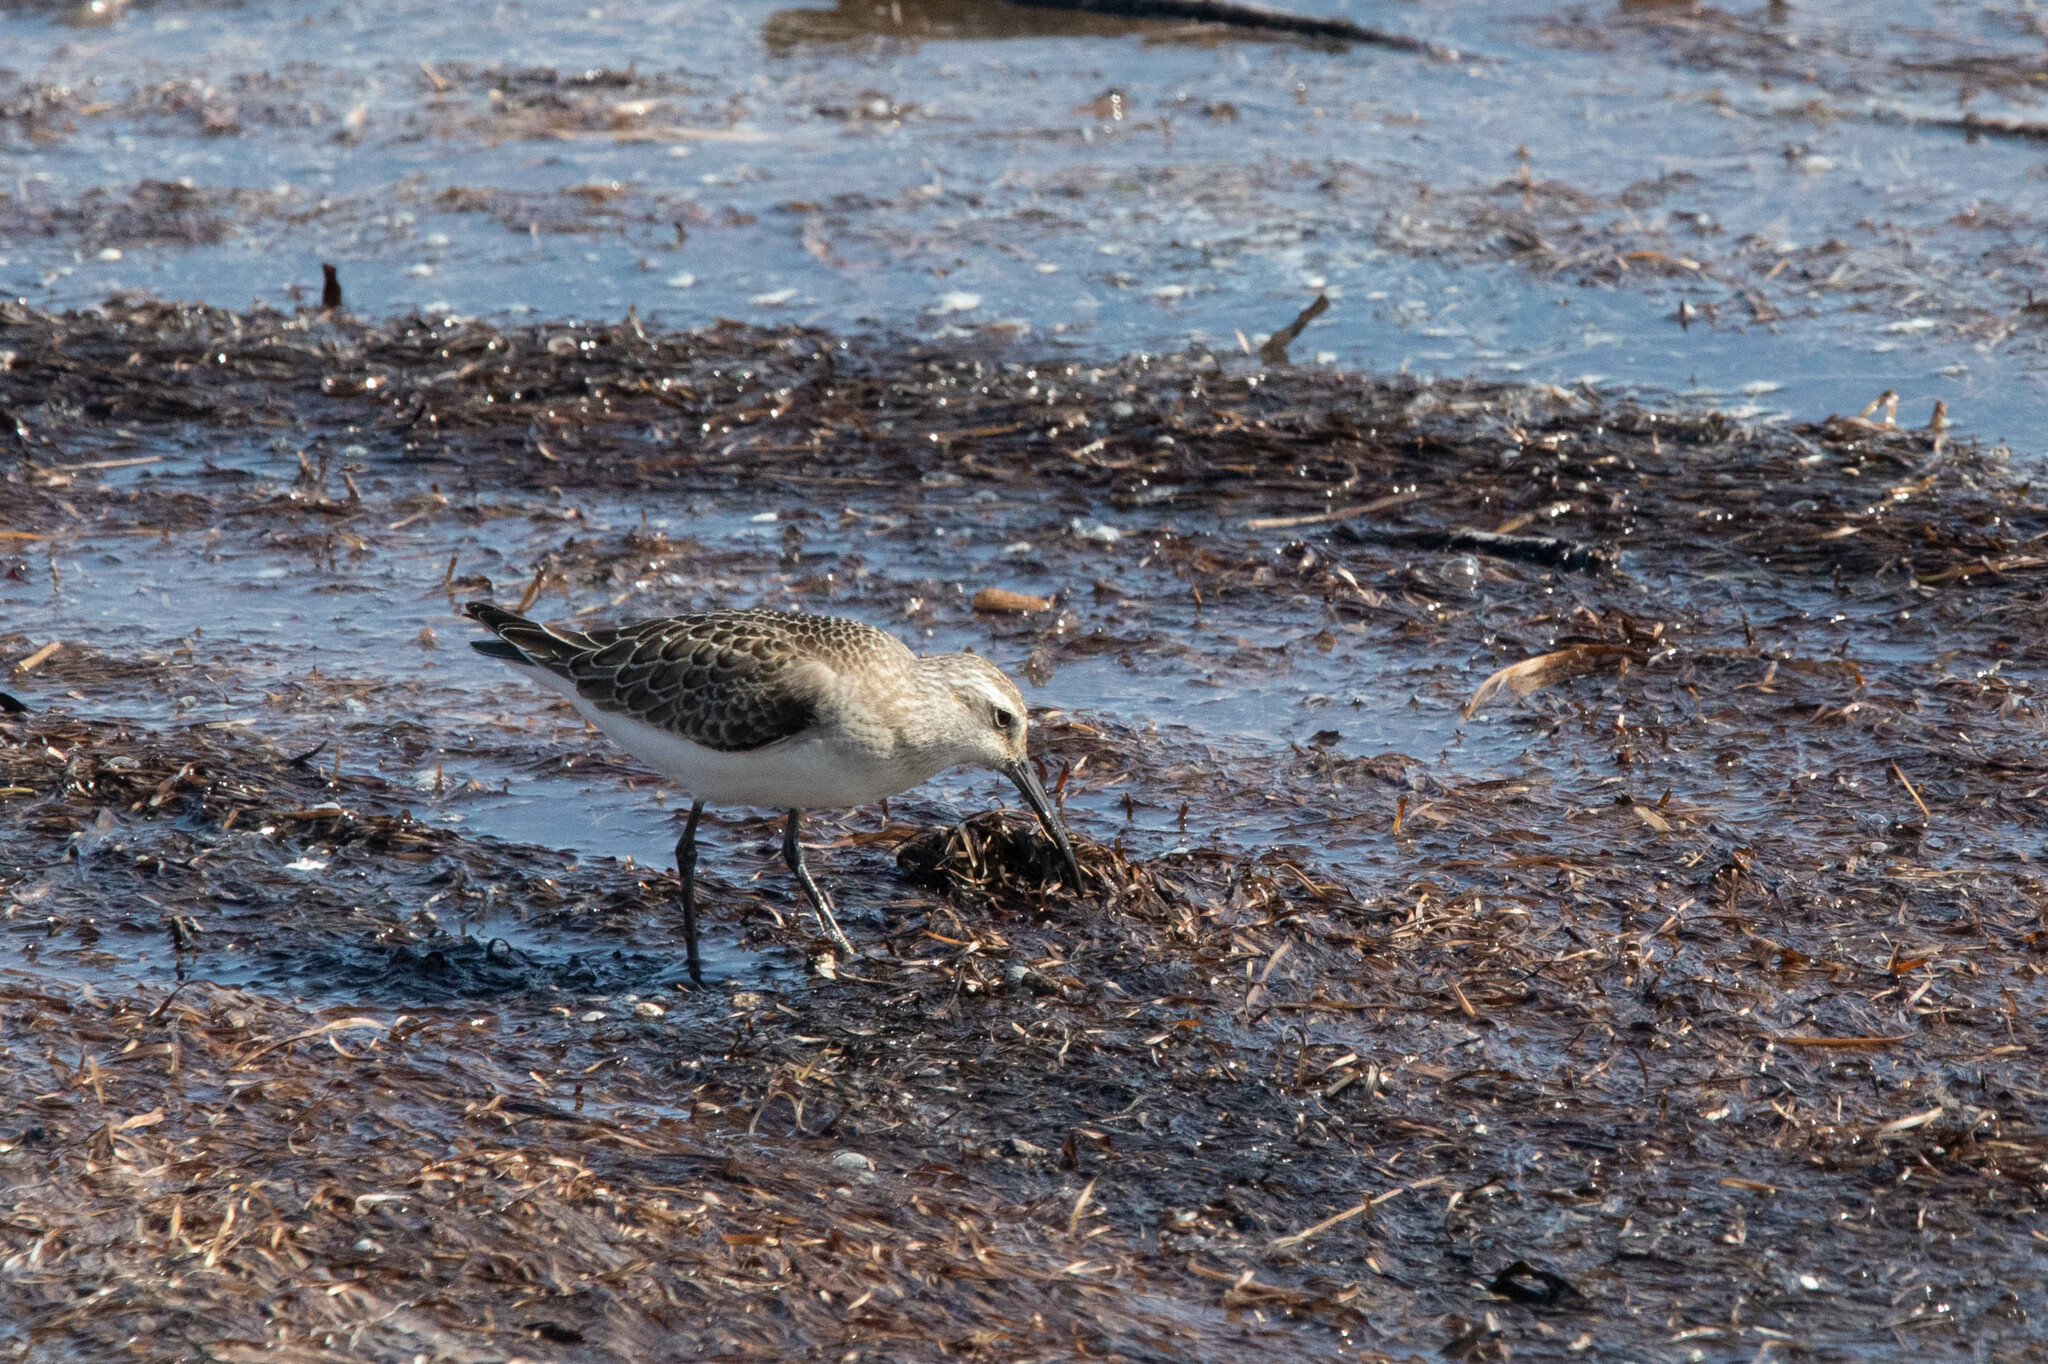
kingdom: Animalia
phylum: Chordata
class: Aves
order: Charadriiformes
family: Scolopacidae
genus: Calidris
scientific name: Calidris ferruginea
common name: Curlew sandpiper
